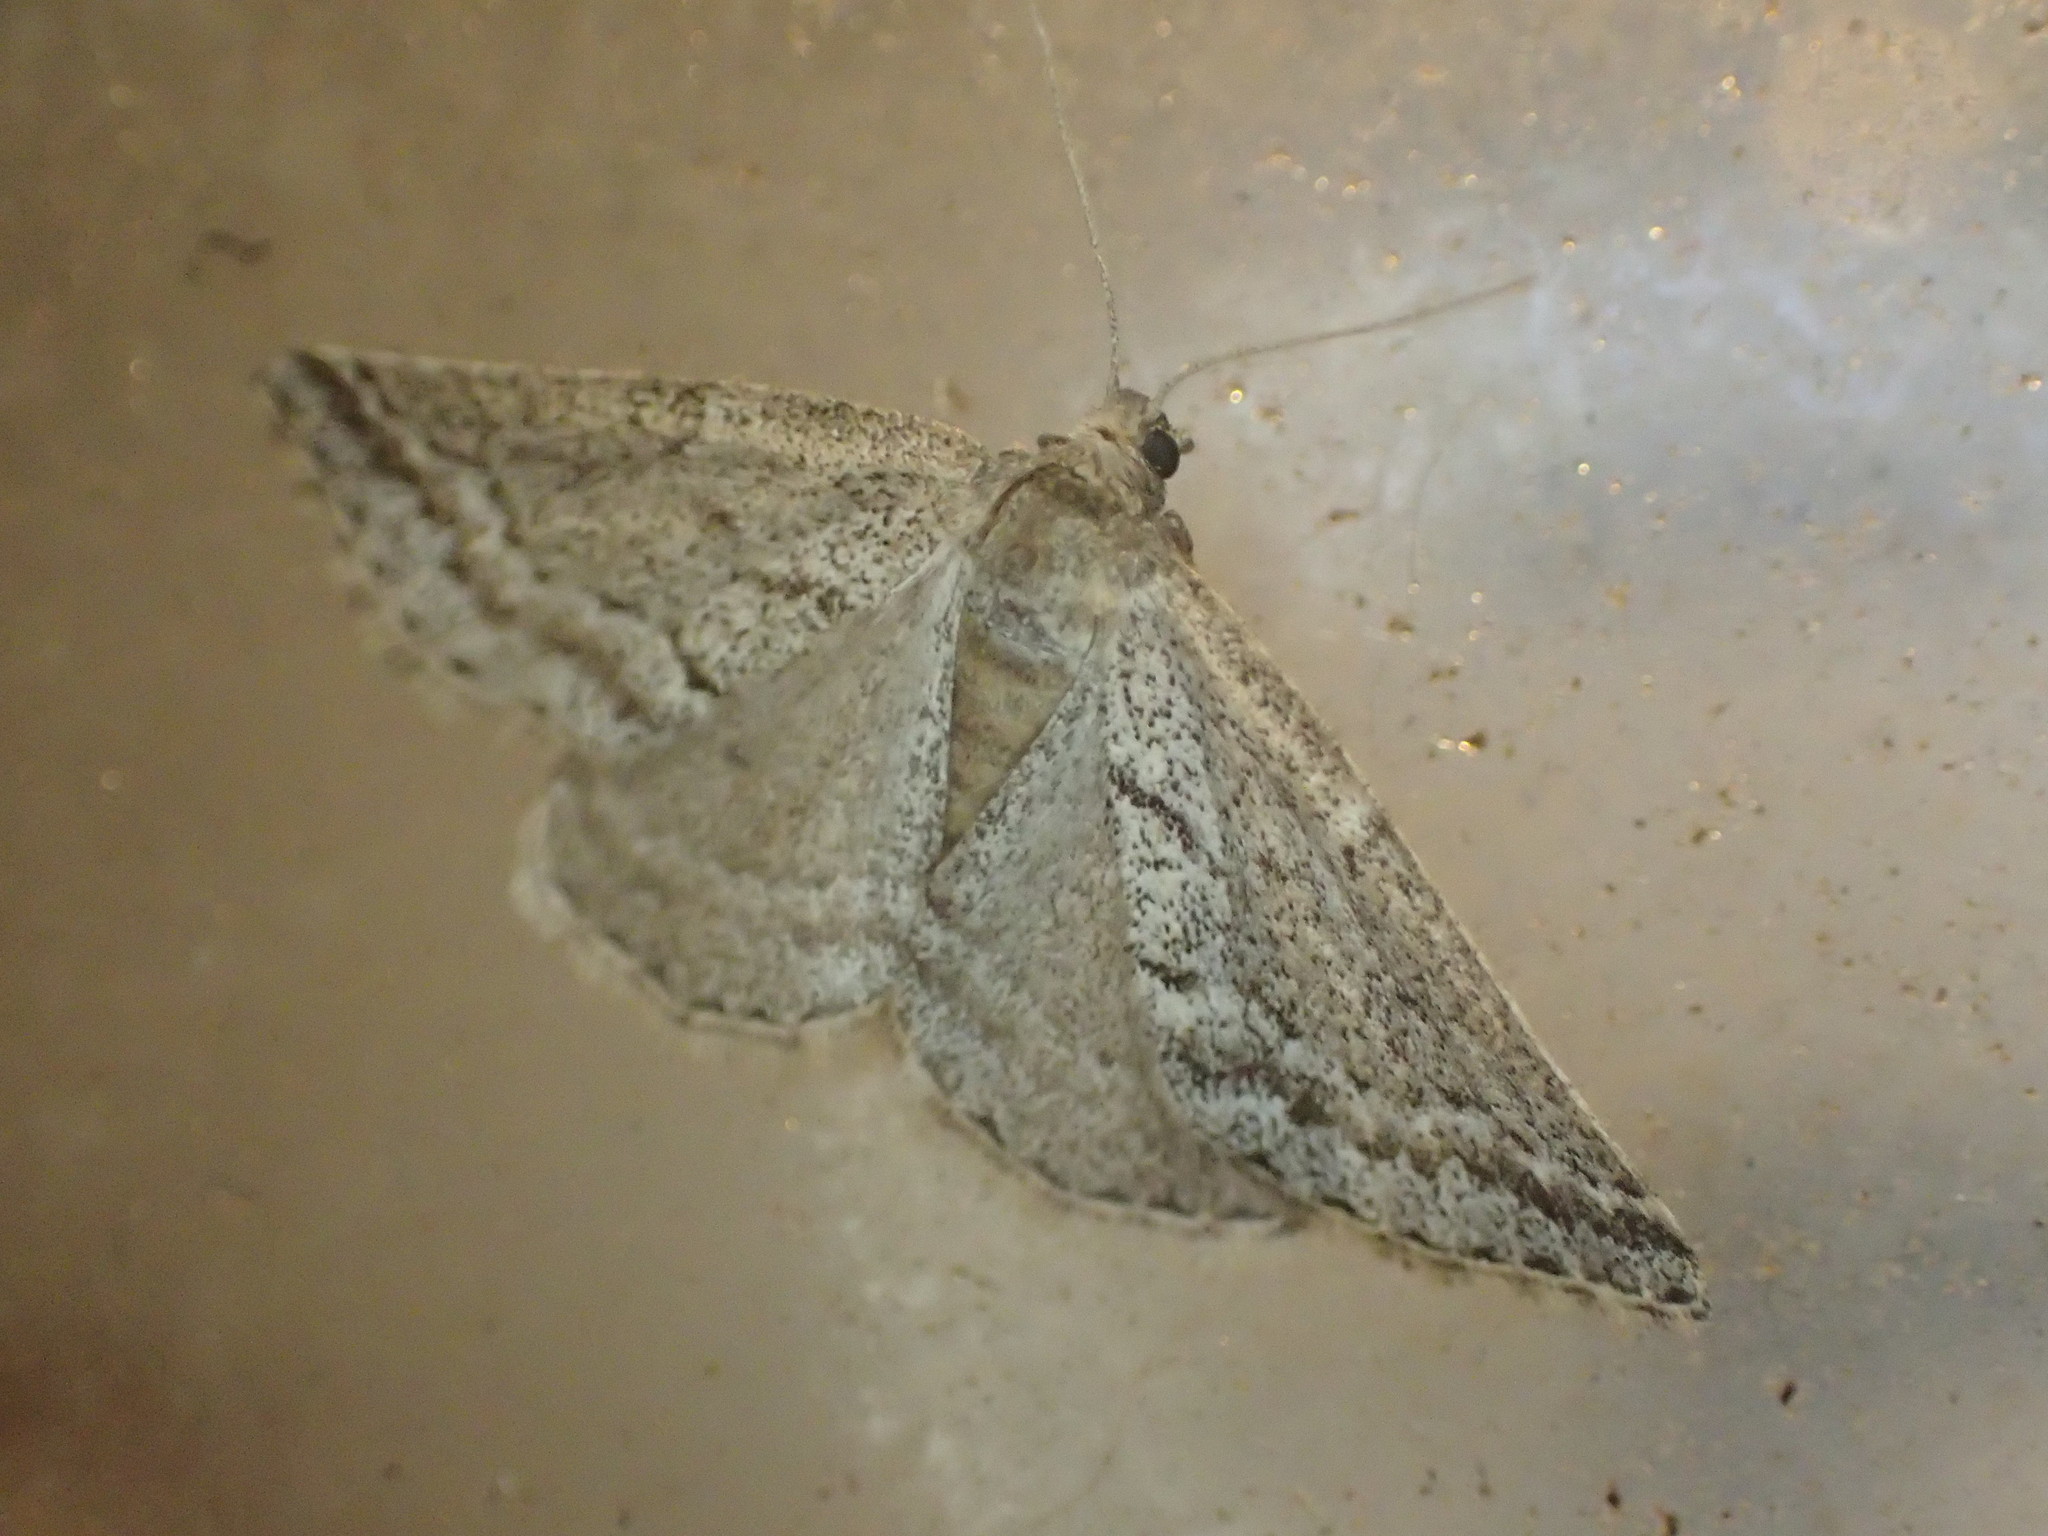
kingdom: Animalia
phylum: Arthropoda
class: Insecta
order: Lepidoptera
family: Geometridae
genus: Aglossophanes
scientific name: Aglossophanes adoxima
